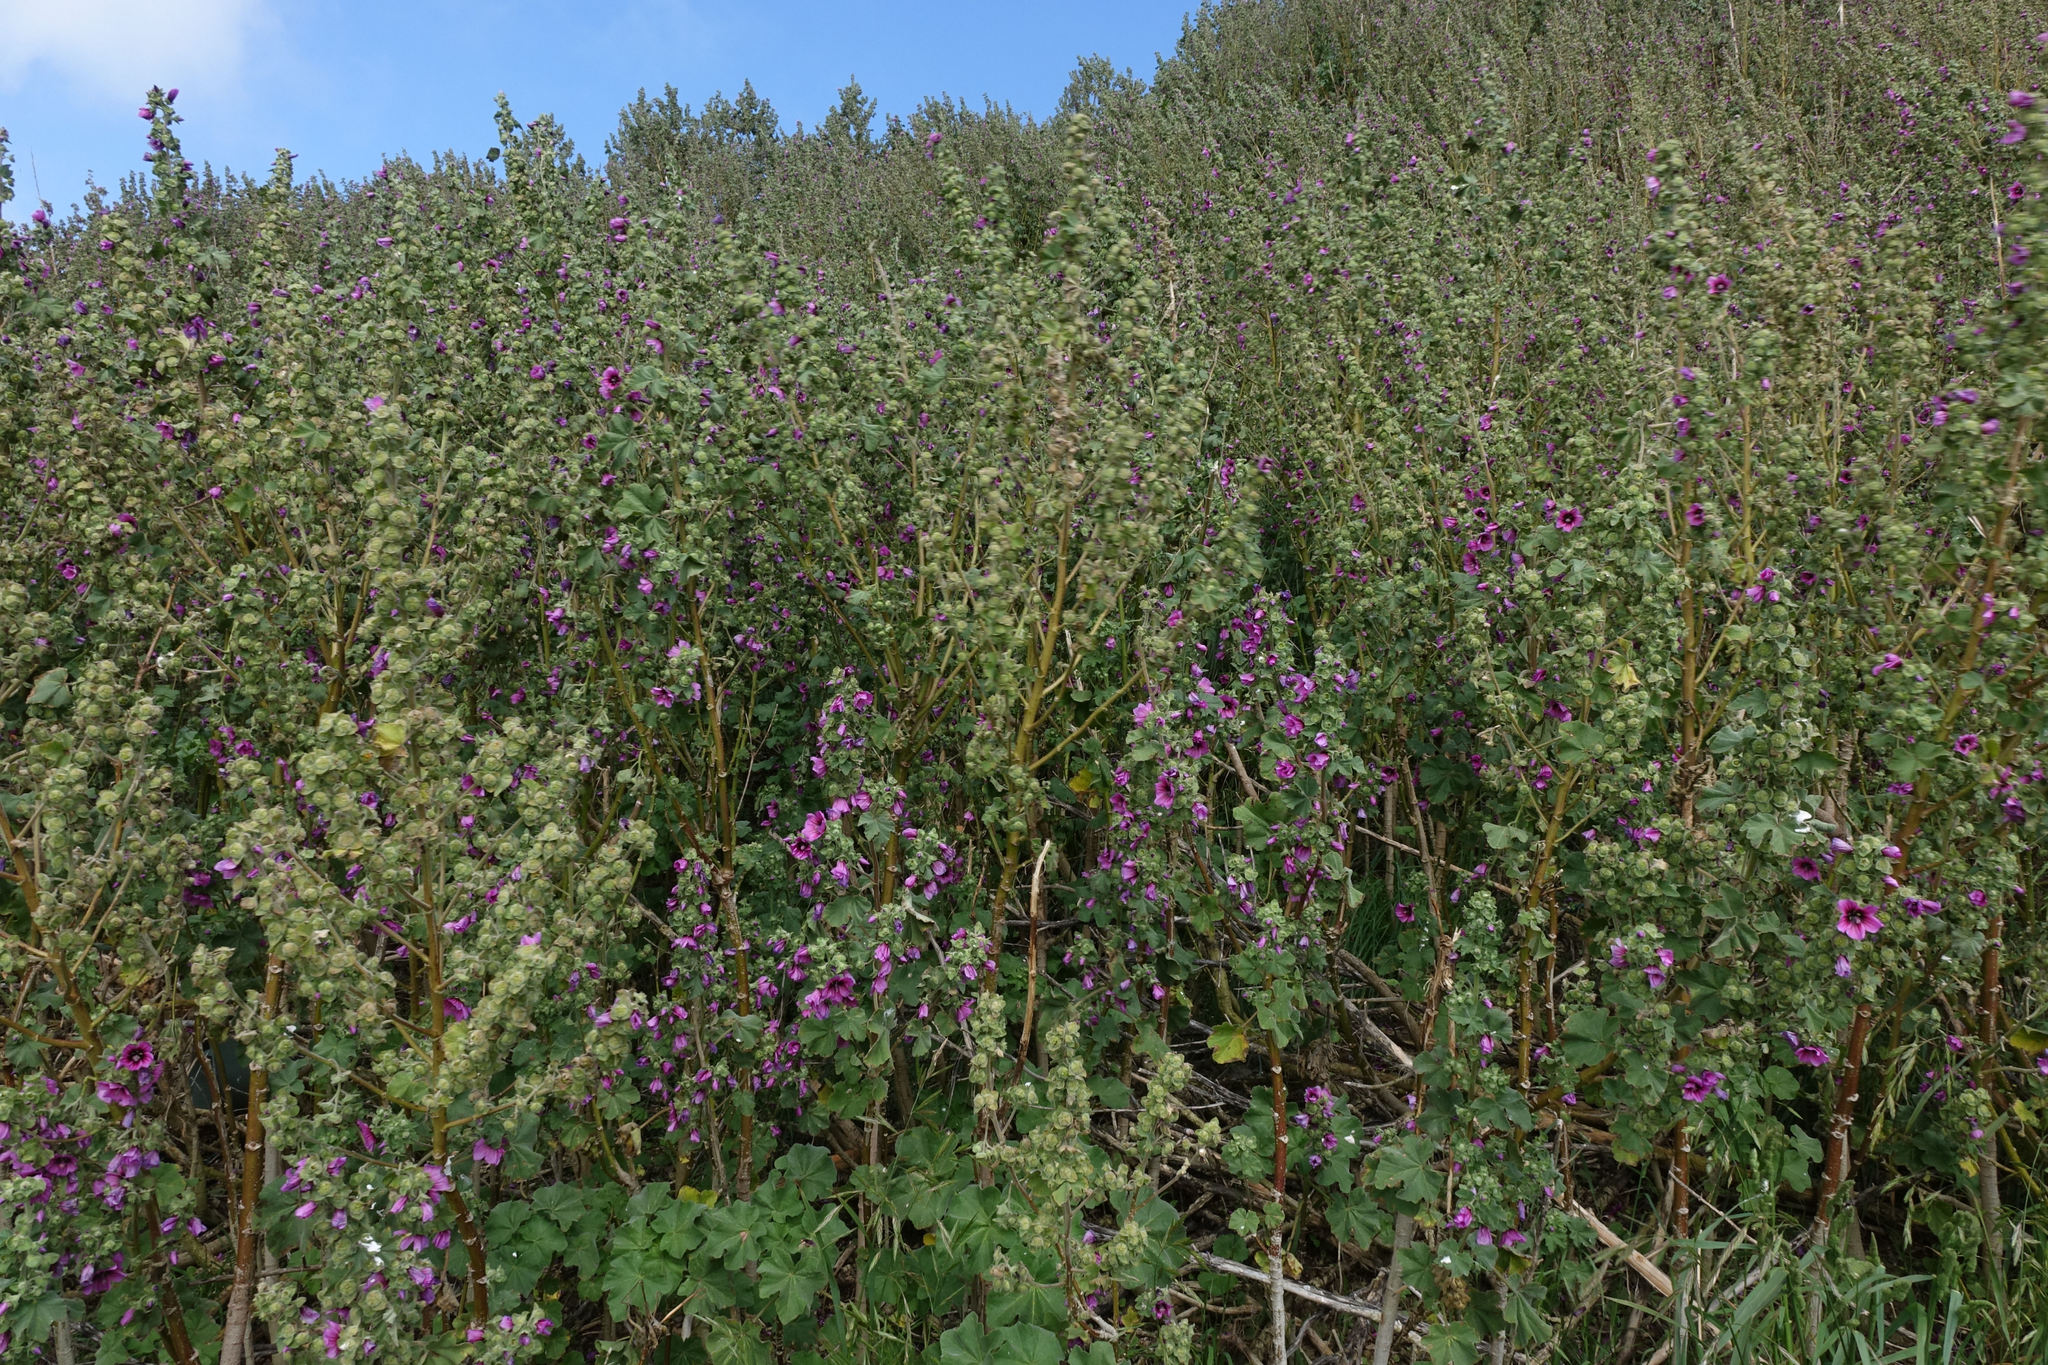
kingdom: Plantae
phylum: Tracheophyta
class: Magnoliopsida
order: Malvales
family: Malvaceae
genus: Malva
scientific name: Malva arborea
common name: Tree mallow
